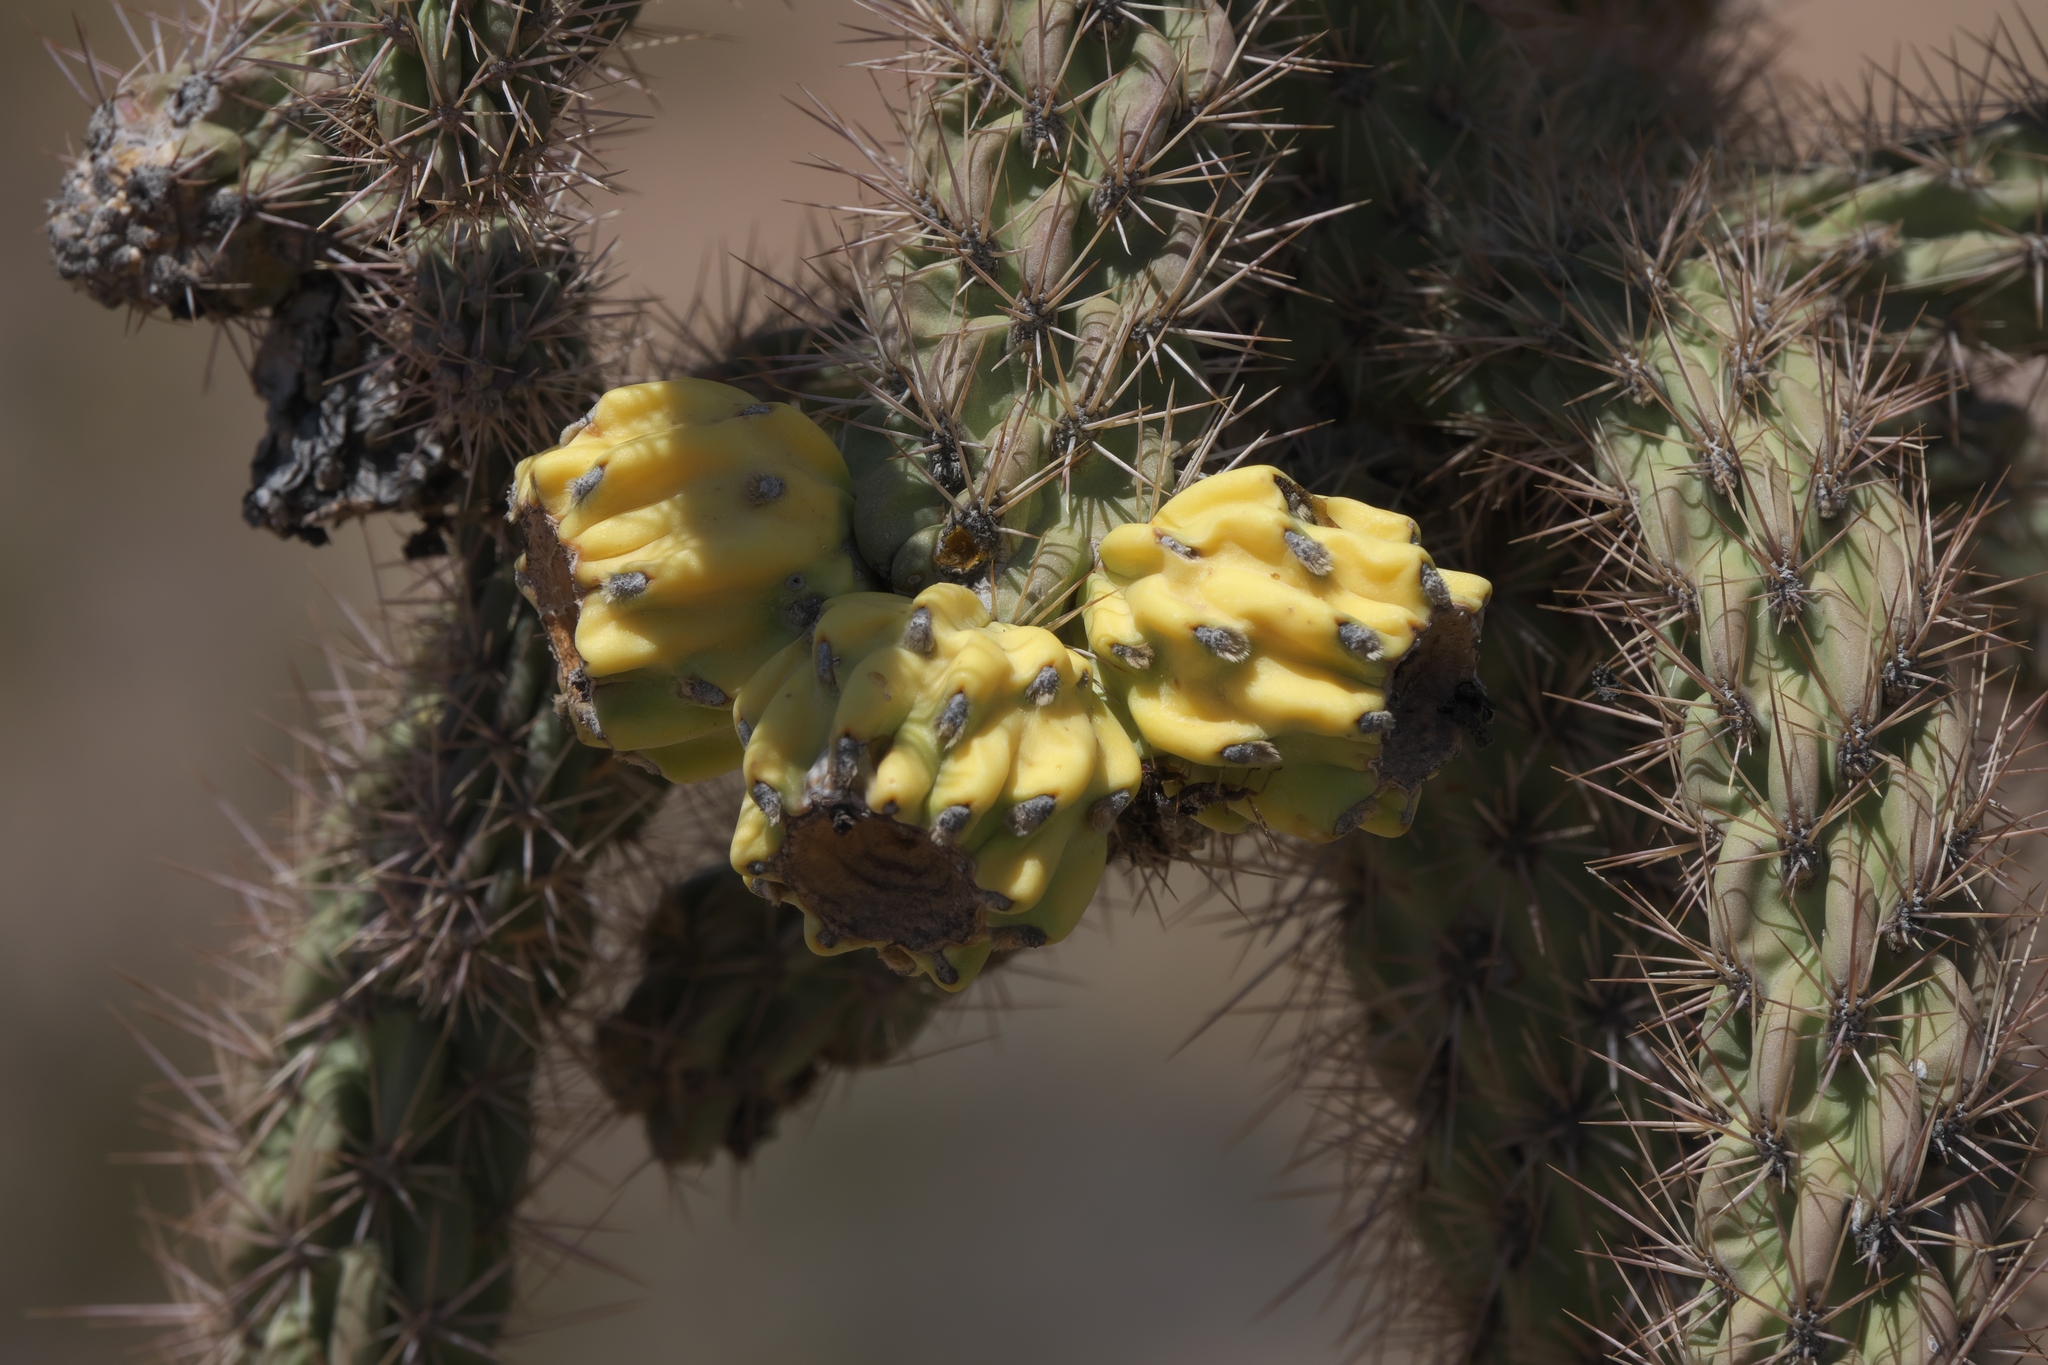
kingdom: Plantae
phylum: Tracheophyta
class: Magnoliopsida
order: Caryophyllales
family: Cactaceae
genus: Cylindropuntia
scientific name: Cylindropuntia imbricata
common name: Candelabrum cactus
